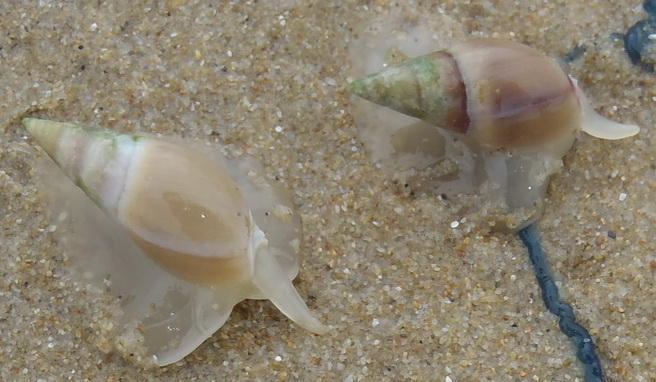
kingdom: Animalia
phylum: Mollusca
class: Gastropoda
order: Neogastropoda
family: Nassariidae
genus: Bullia
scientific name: Bullia rhodostoma
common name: Smooth plough shell
